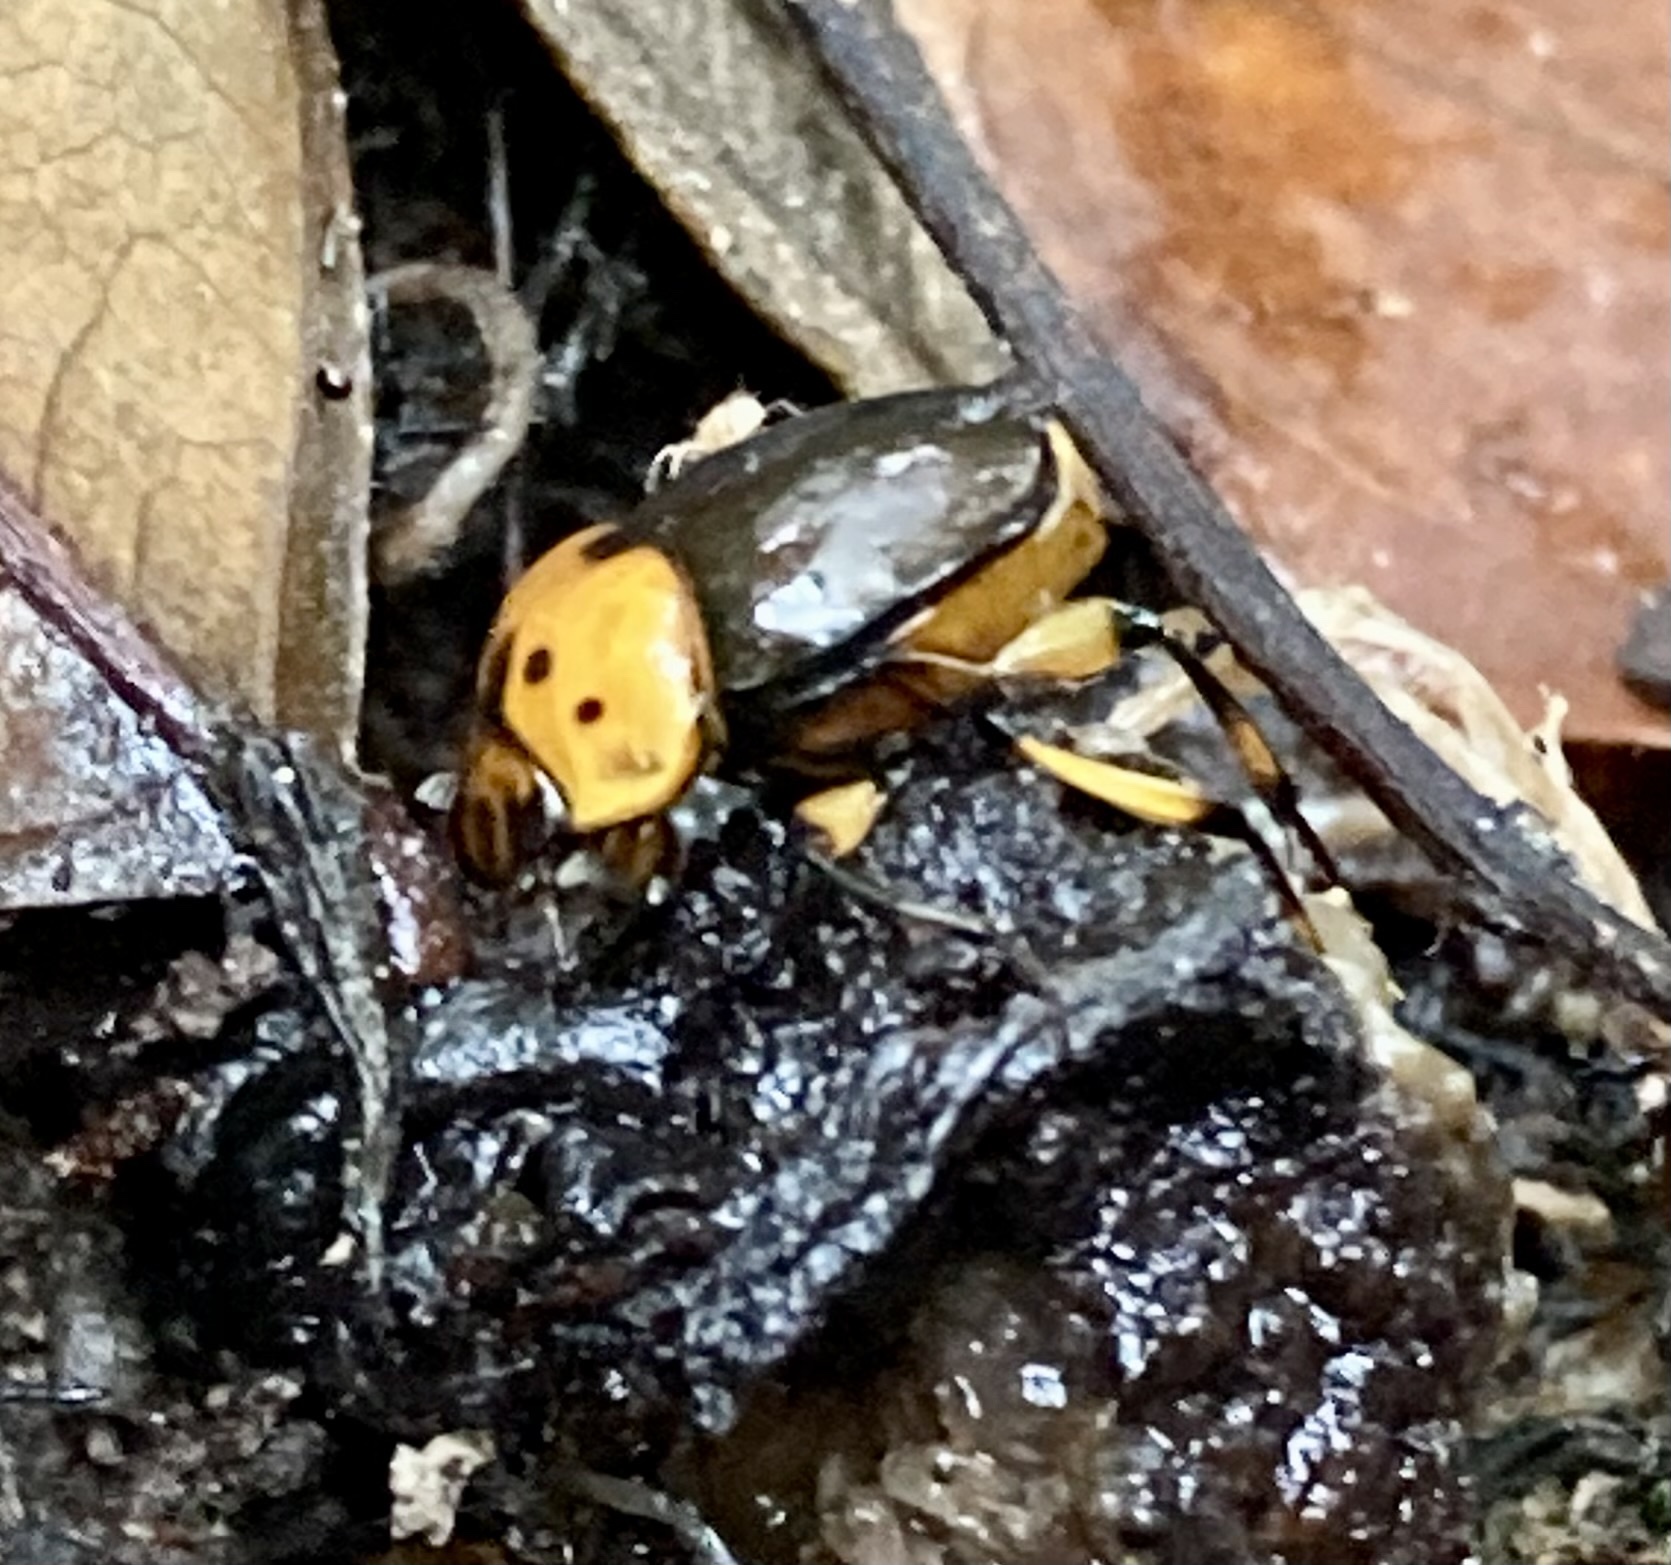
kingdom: Animalia
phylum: Arthropoda
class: Insecta
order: Coleoptera
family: Scarabaeidae
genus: Scybalocanthon
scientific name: Scybalocanthon sexspilotus
